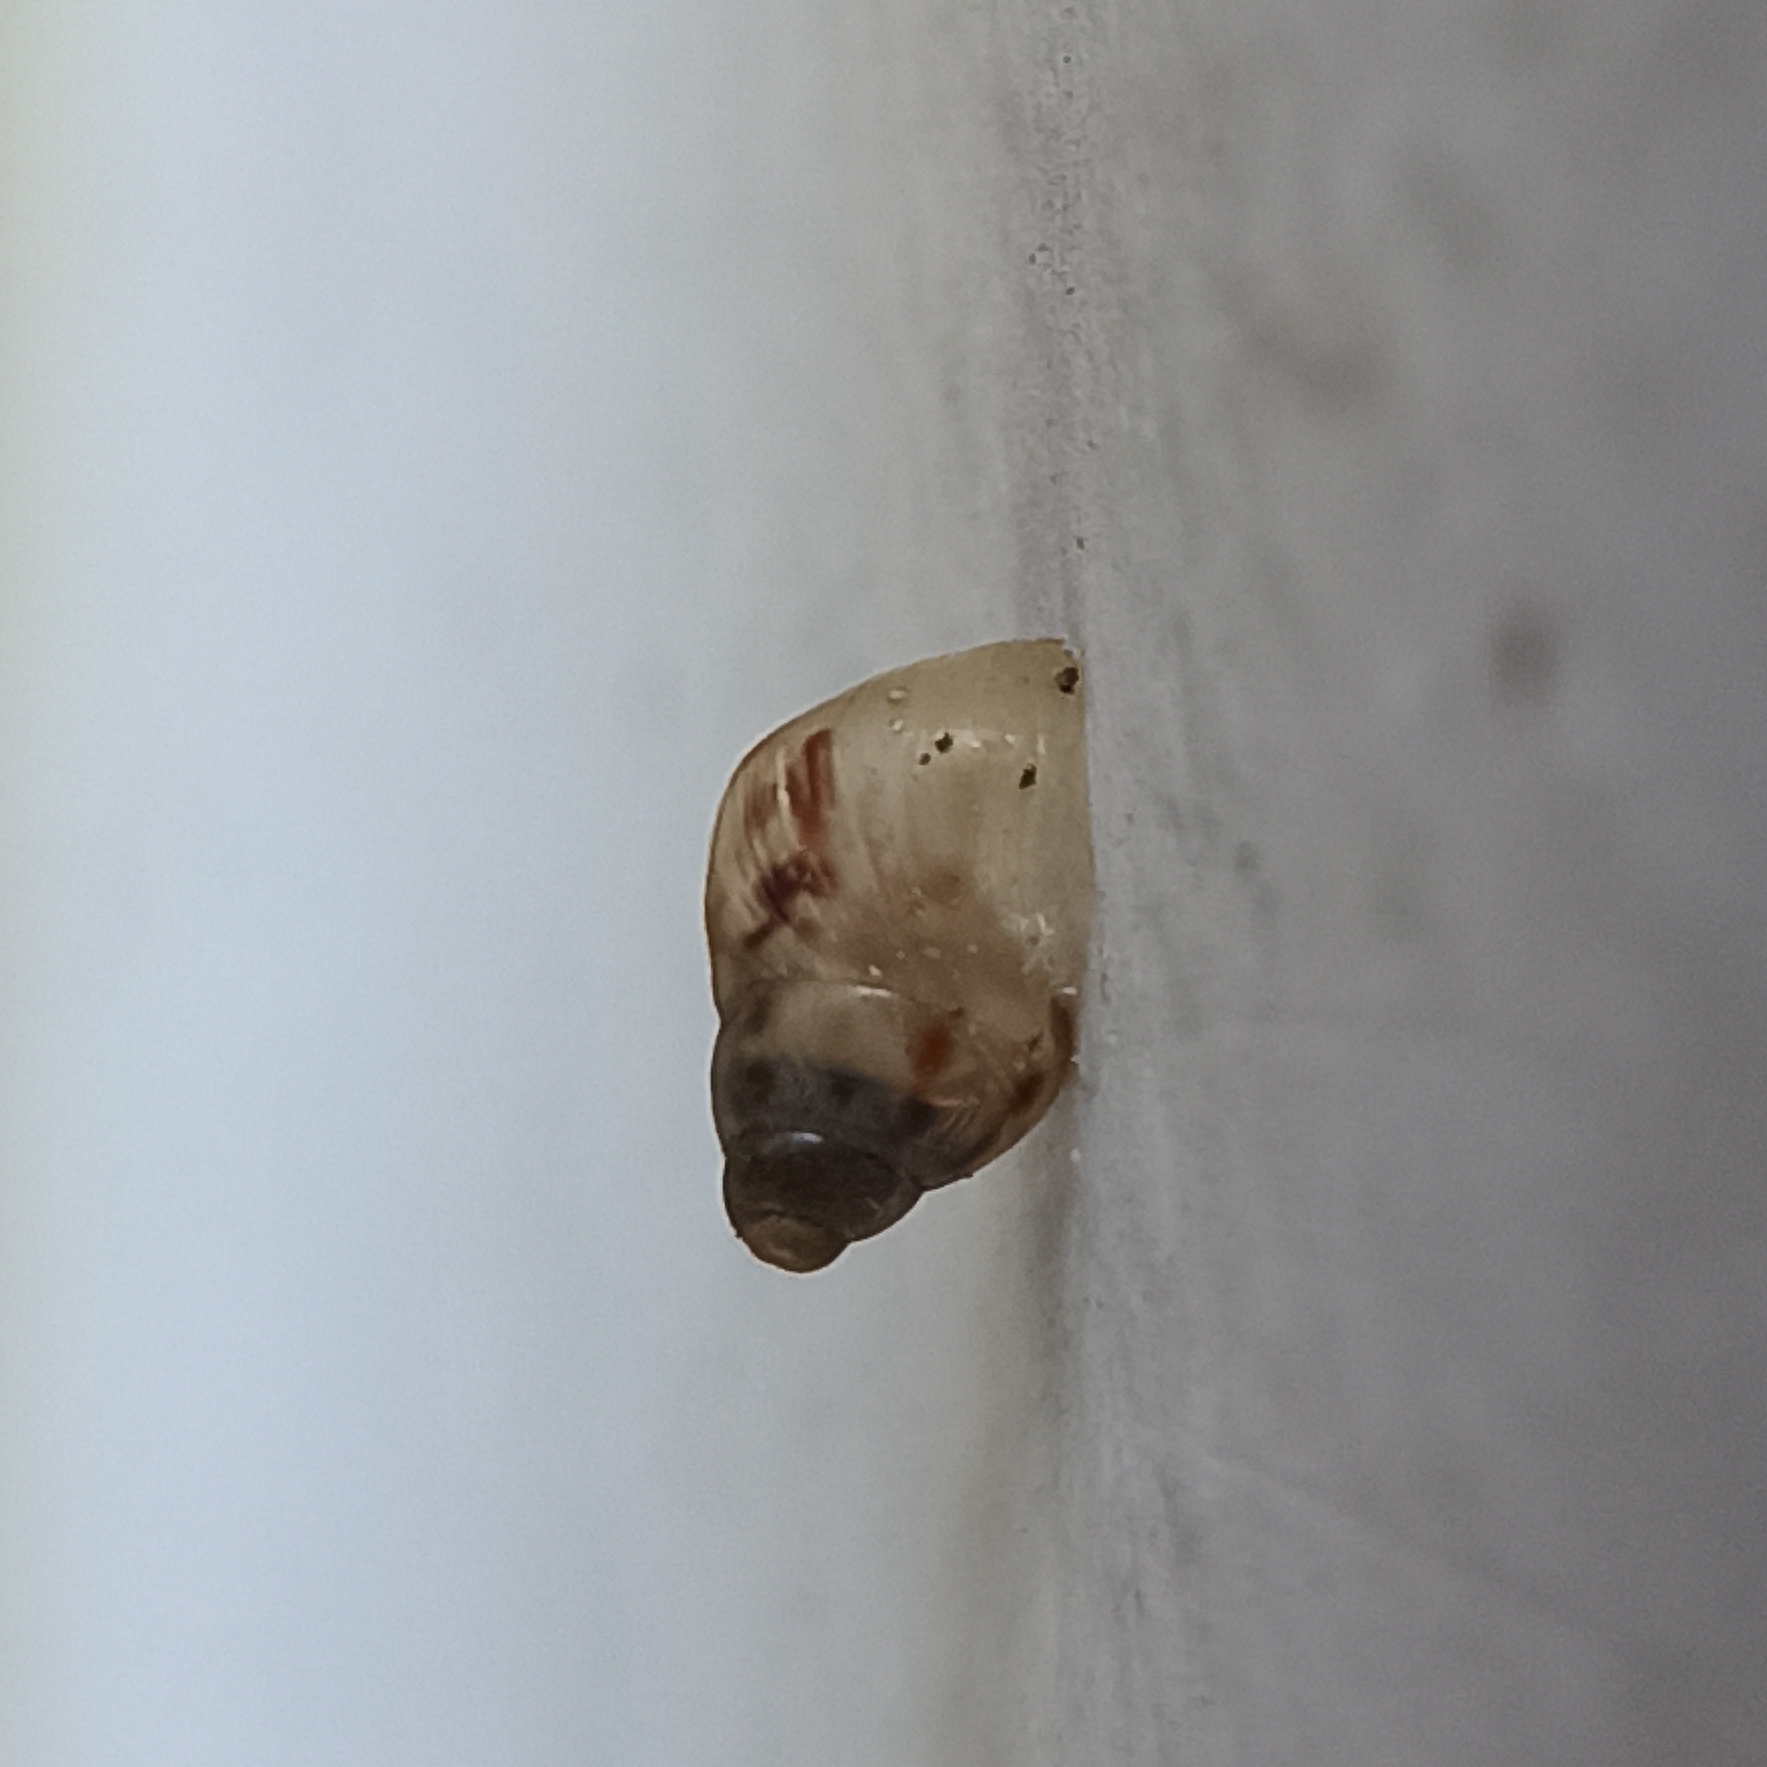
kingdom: Animalia
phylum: Mollusca
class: Gastropoda
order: Stylommatophora
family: Bulimulidae
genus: Drymaeus
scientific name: Drymaeus papyraceus
